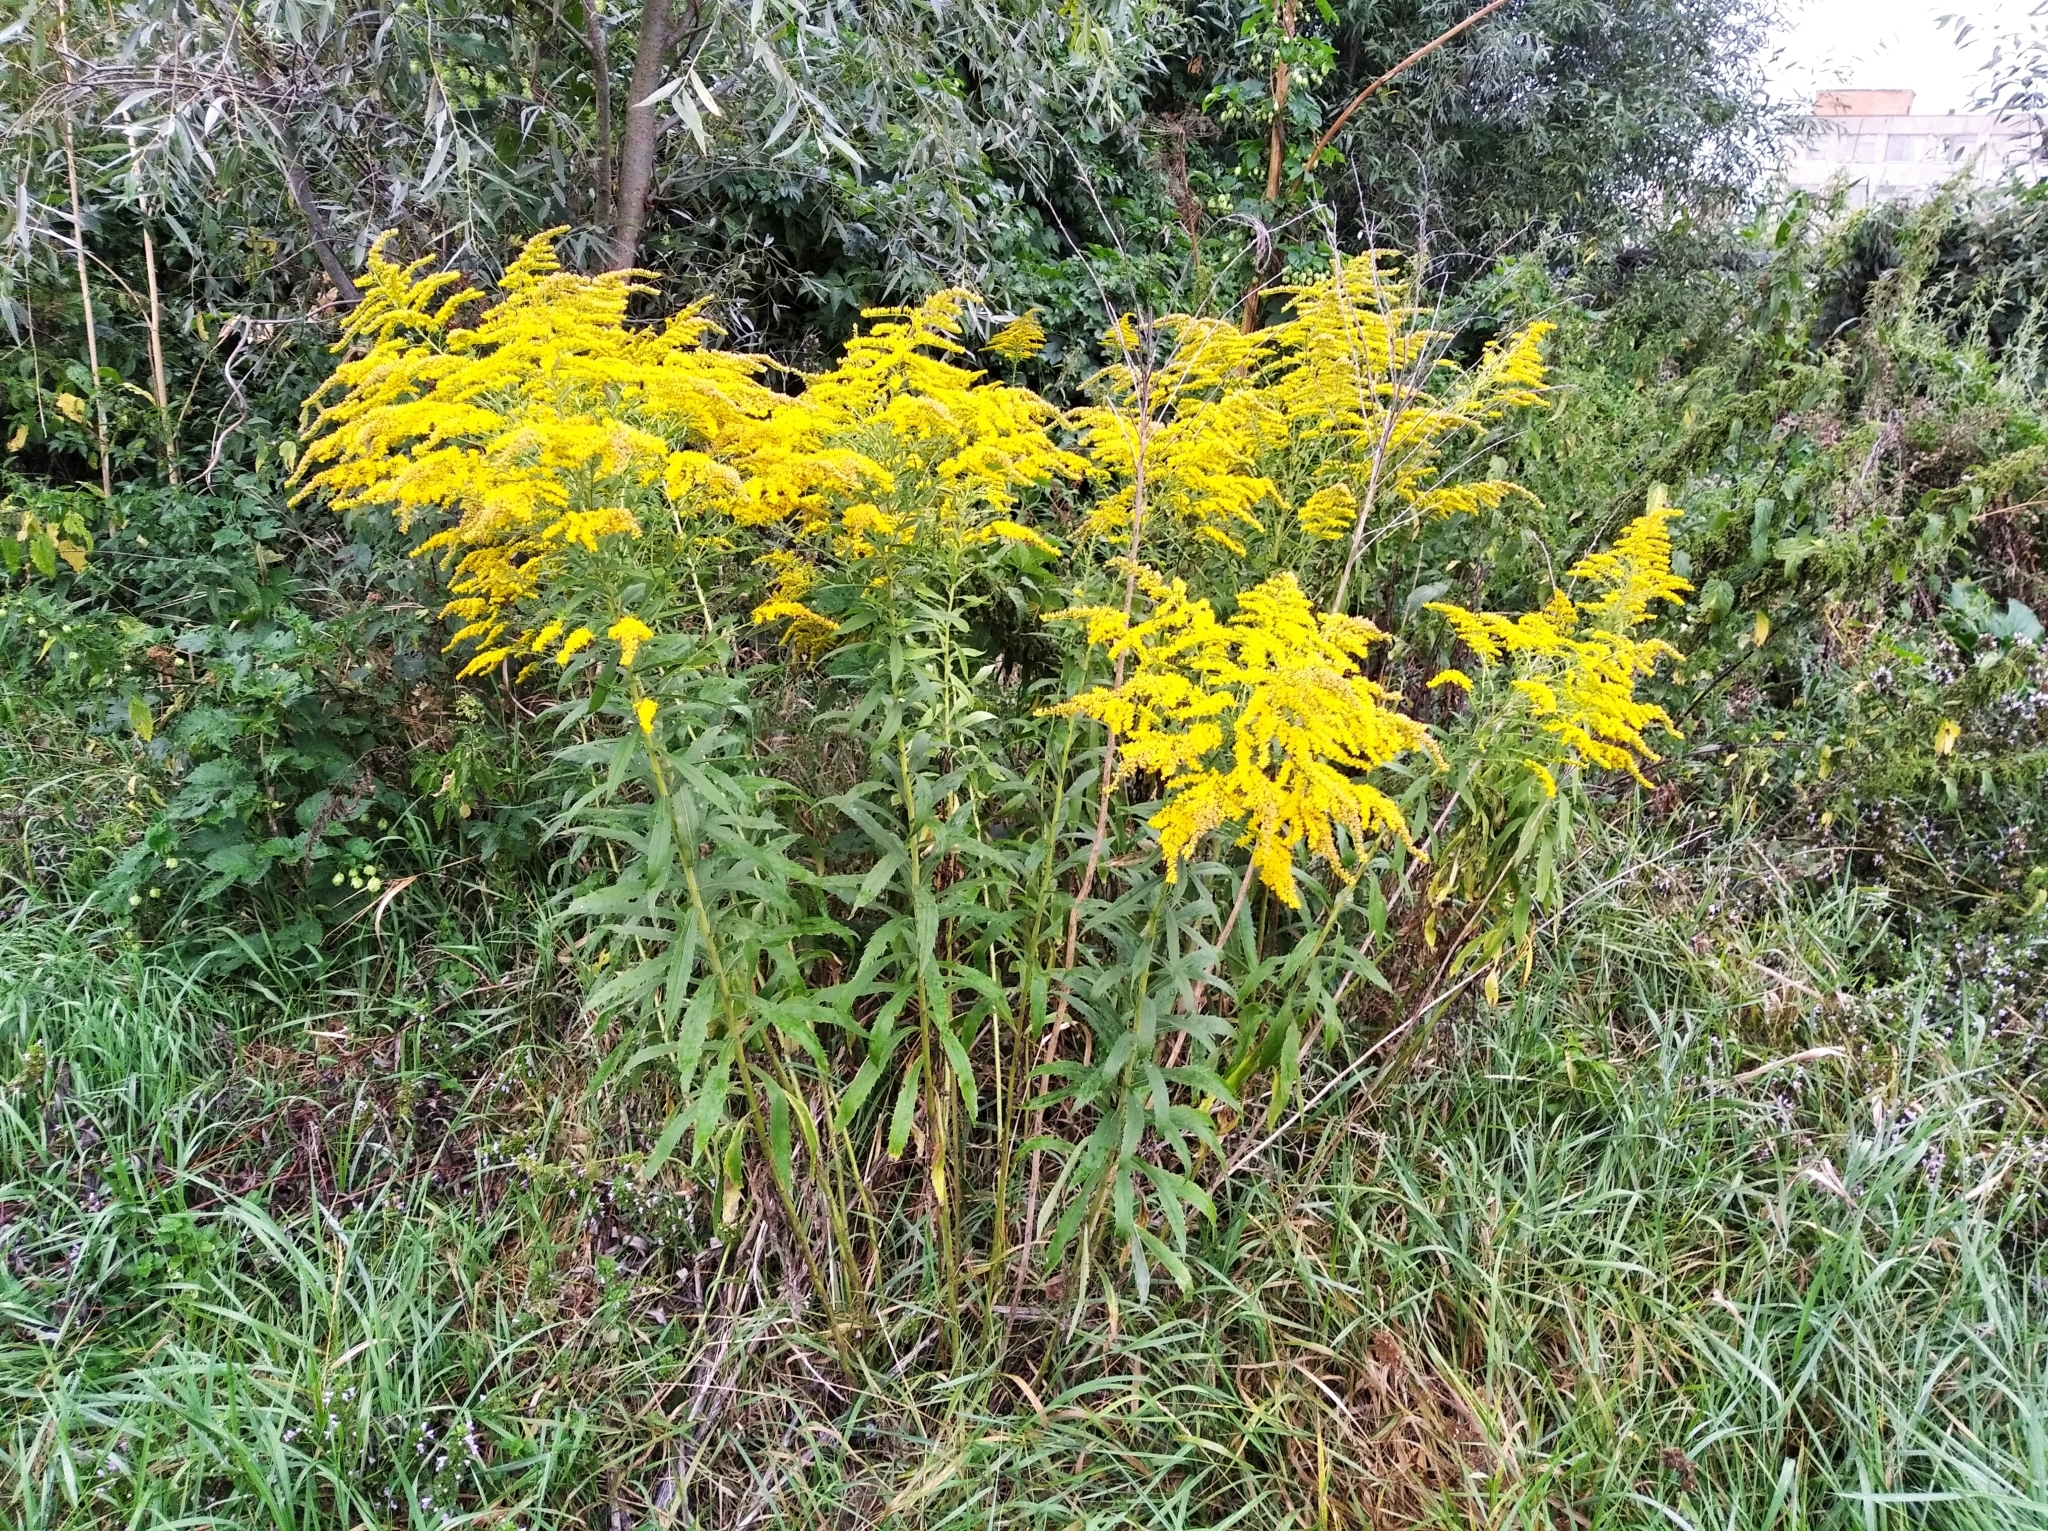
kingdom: Plantae
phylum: Tracheophyta
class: Magnoliopsida
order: Asterales
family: Asteraceae
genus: Solidago
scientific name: Solidago gigantea
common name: Giant goldenrod
